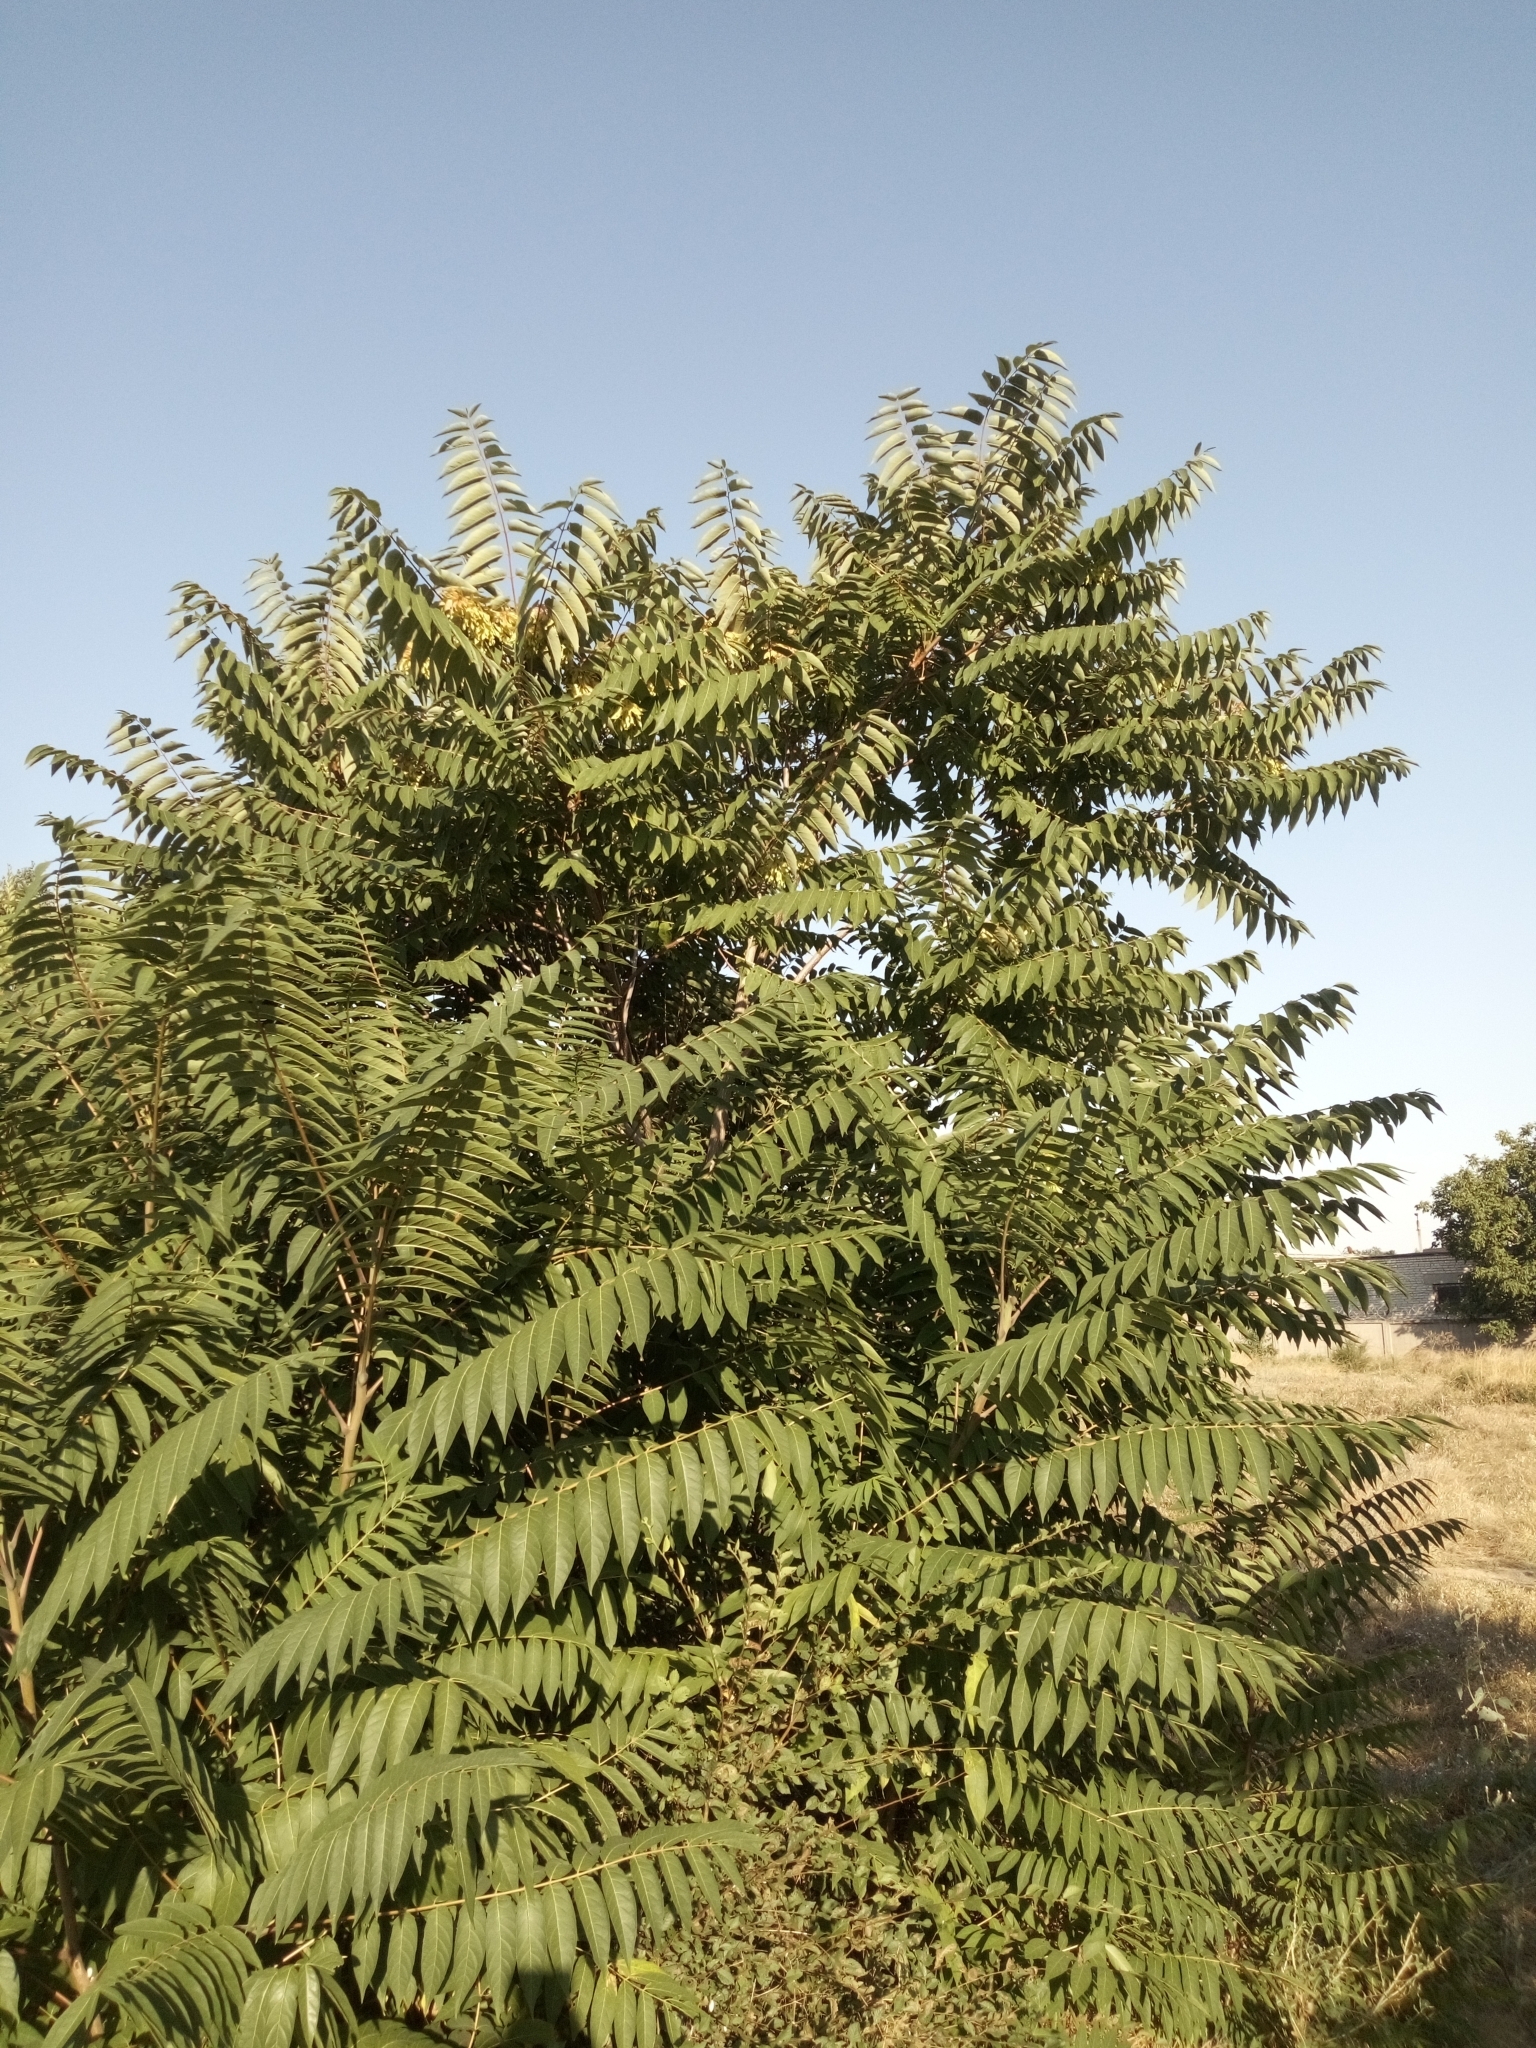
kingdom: Plantae
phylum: Tracheophyta
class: Magnoliopsida
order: Sapindales
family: Simaroubaceae
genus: Ailanthus
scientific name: Ailanthus altissima
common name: Tree-of-heaven
